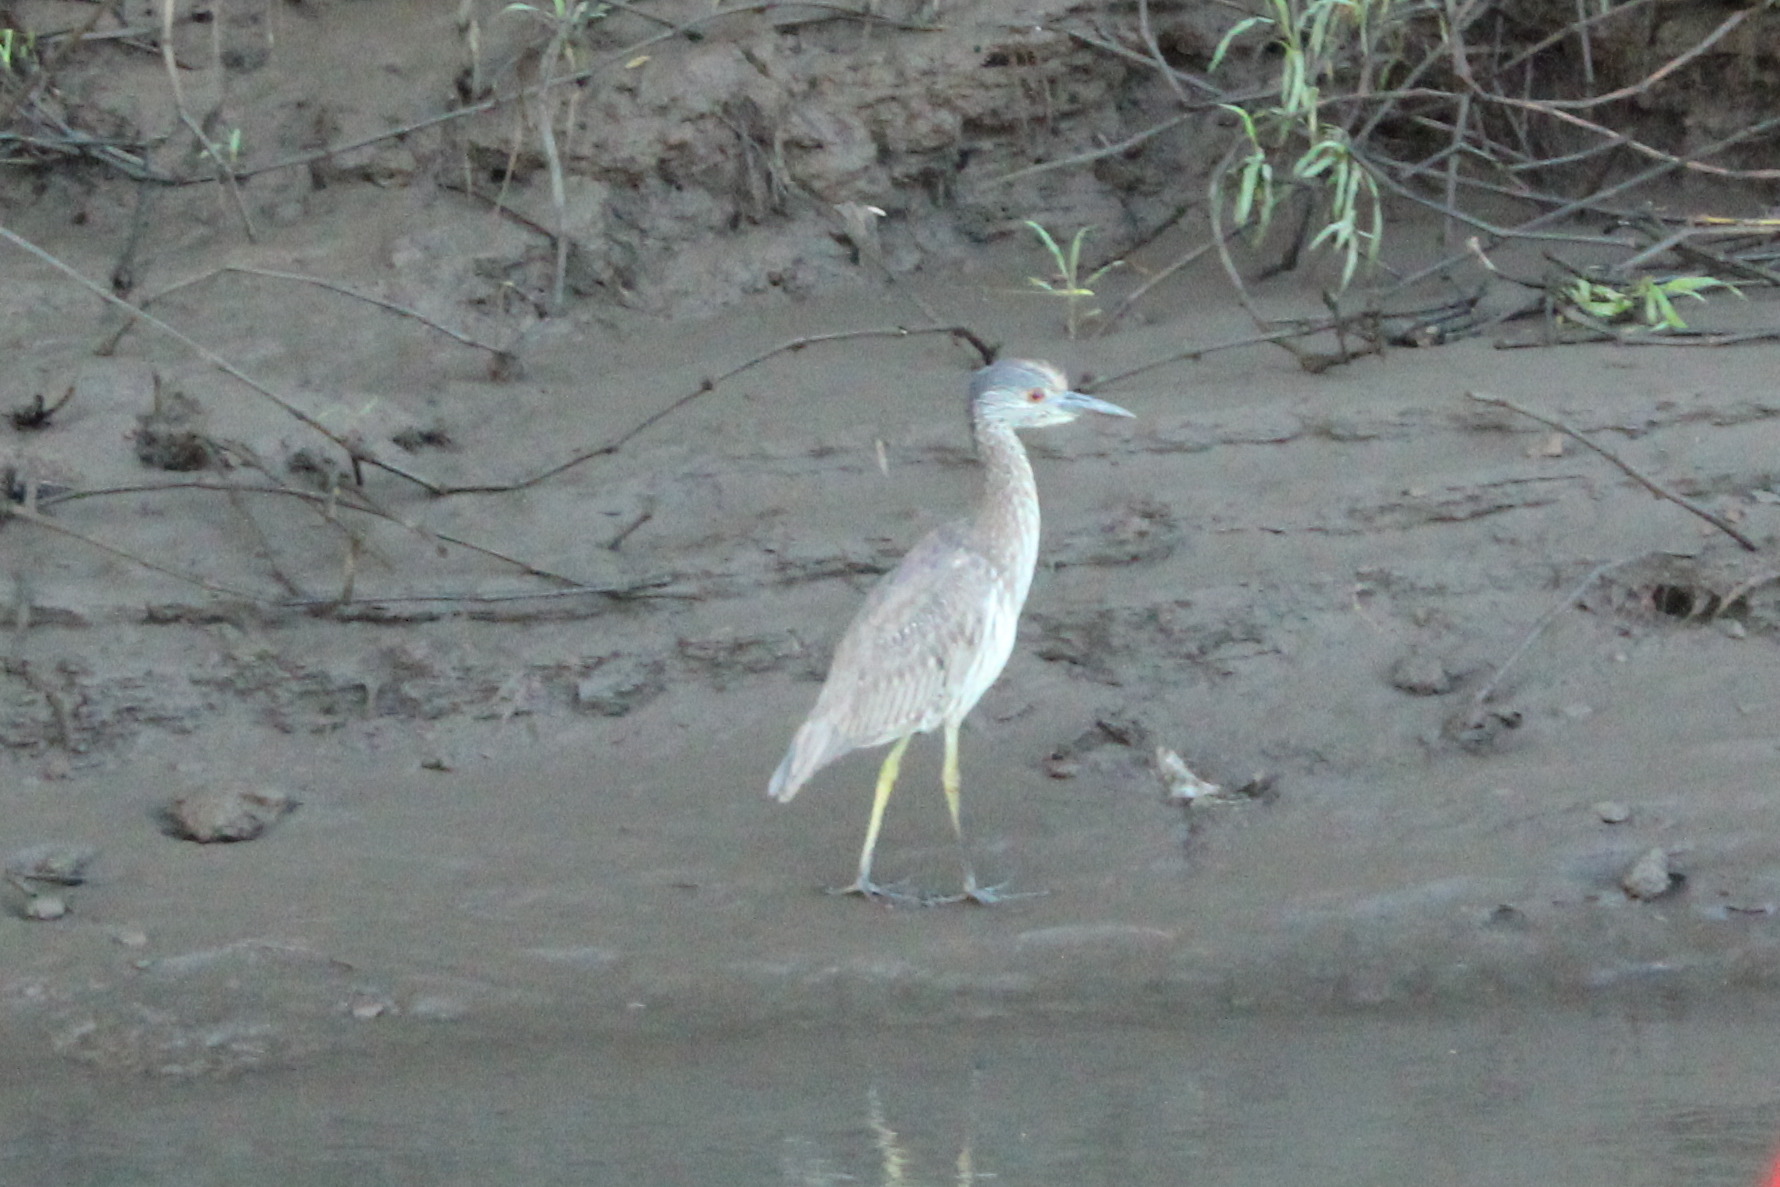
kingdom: Animalia
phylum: Chordata
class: Aves
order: Pelecaniformes
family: Ardeidae
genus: Nyctanassa
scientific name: Nyctanassa violacea
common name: Yellow-crowned night heron
